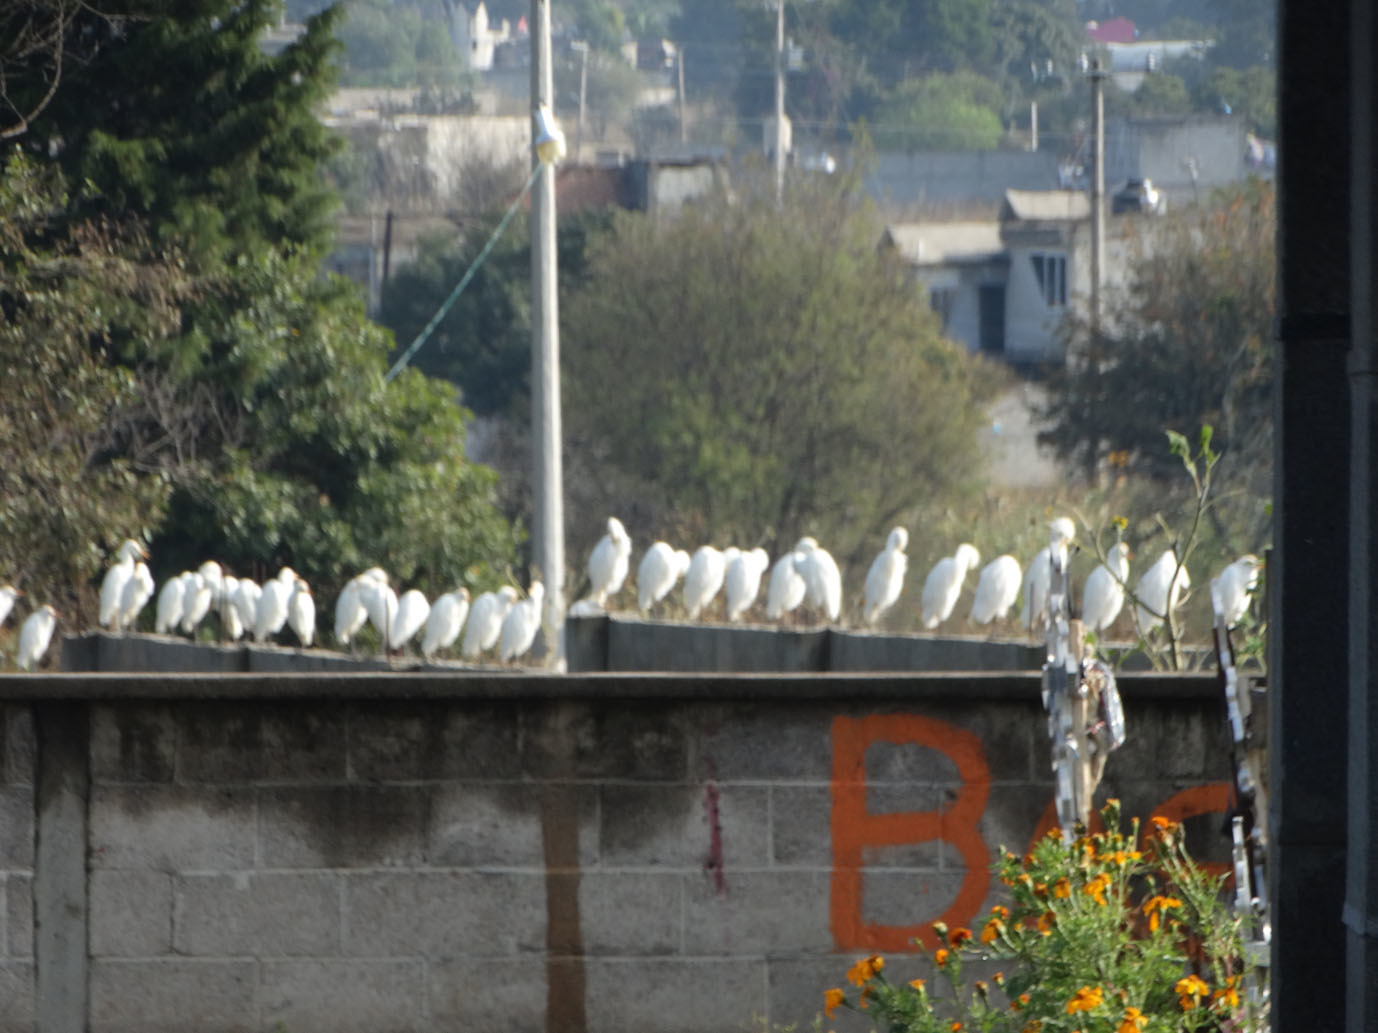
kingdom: Animalia
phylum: Chordata
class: Aves
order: Pelecaniformes
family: Ardeidae
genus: Bubulcus
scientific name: Bubulcus ibis
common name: Cattle egret
